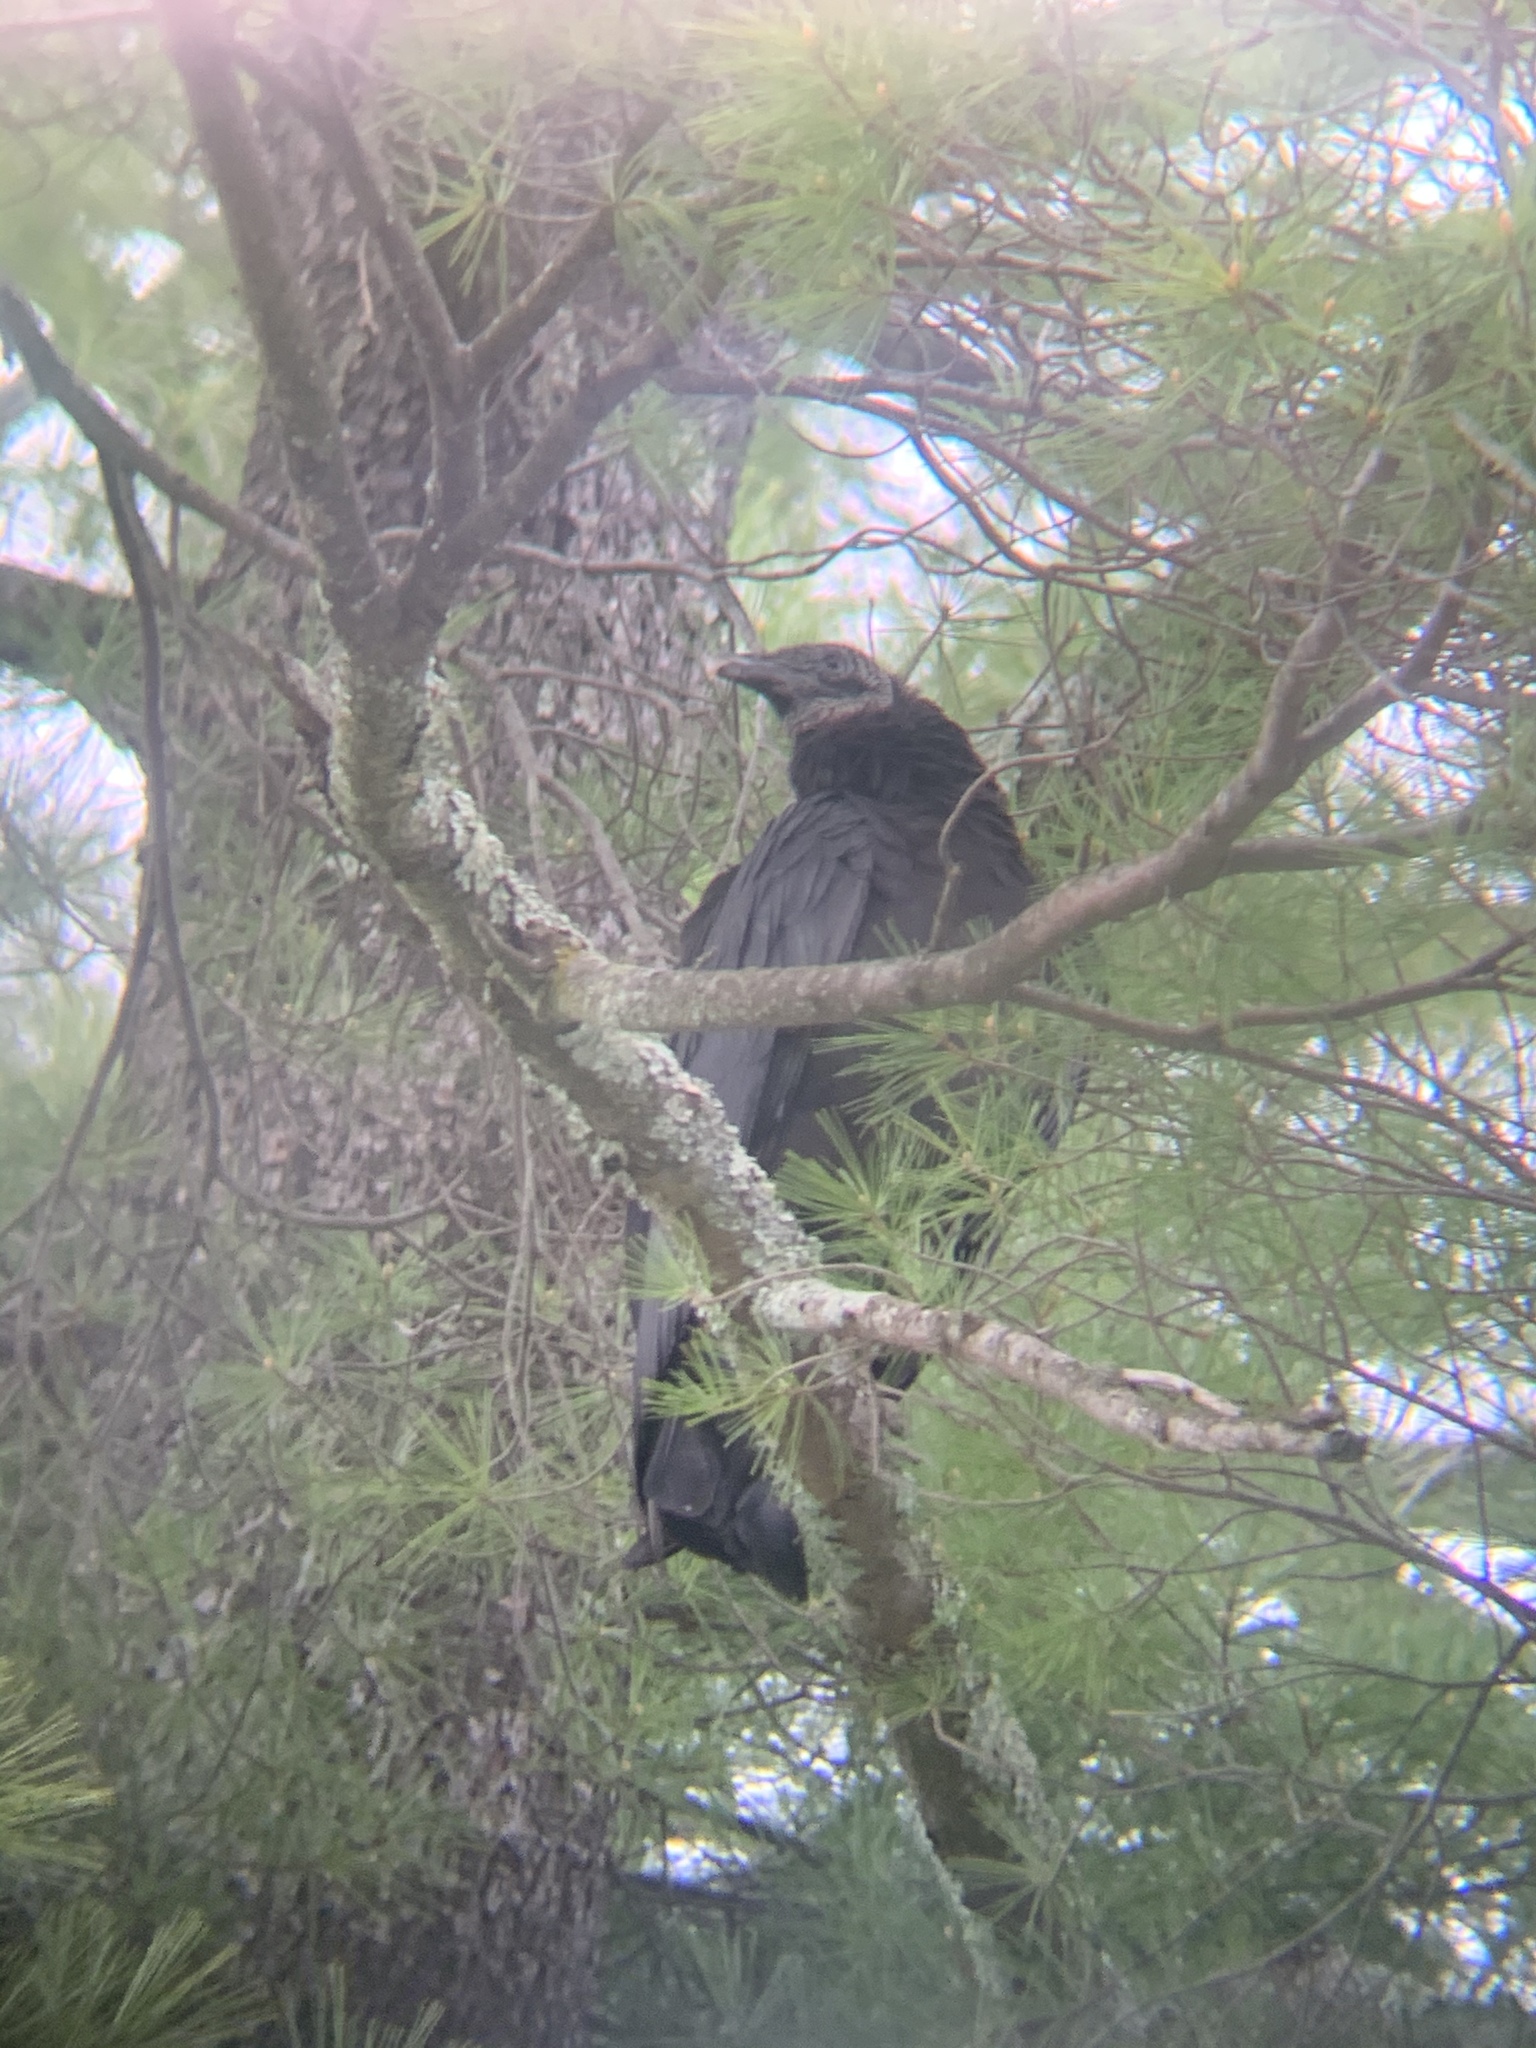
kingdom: Animalia
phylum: Chordata
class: Aves
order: Accipitriformes
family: Cathartidae
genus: Coragyps
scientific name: Coragyps atratus
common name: Black vulture
